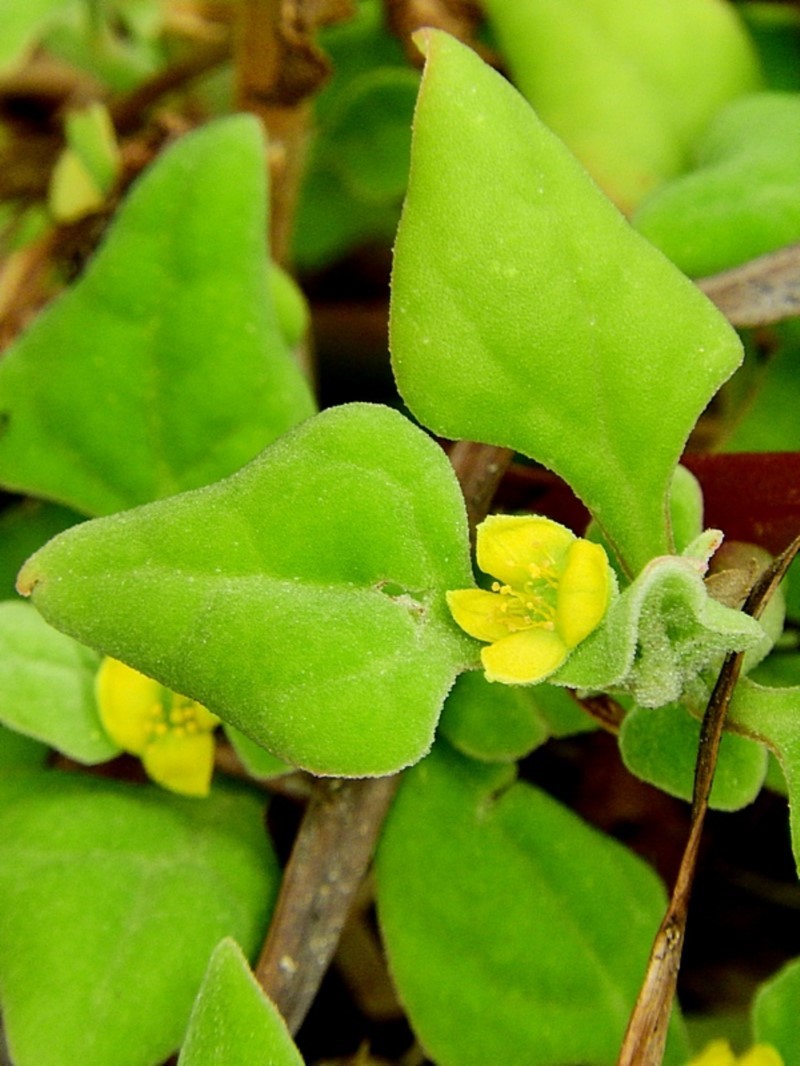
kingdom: Plantae
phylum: Tracheophyta
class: Magnoliopsida
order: Caryophyllales
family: Aizoaceae
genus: Tetragonia
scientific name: Tetragonia tetragonoides
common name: New zealand-spinach
